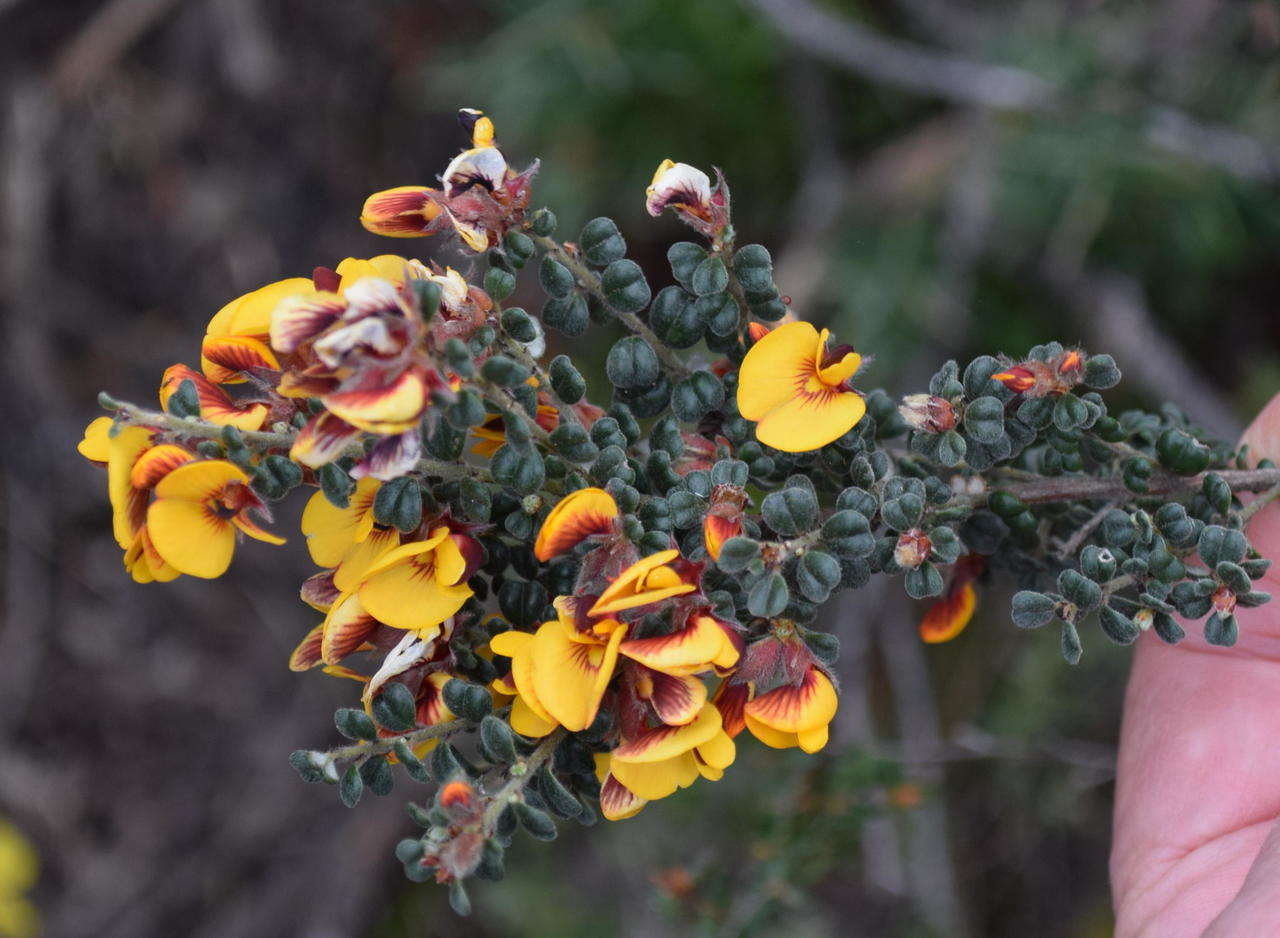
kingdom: Plantae
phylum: Tracheophyta
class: Magnoliopsida
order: Fabales
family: Fabaceae
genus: Pultenaea
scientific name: Pultenaea scabra
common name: Rough bush-pea
